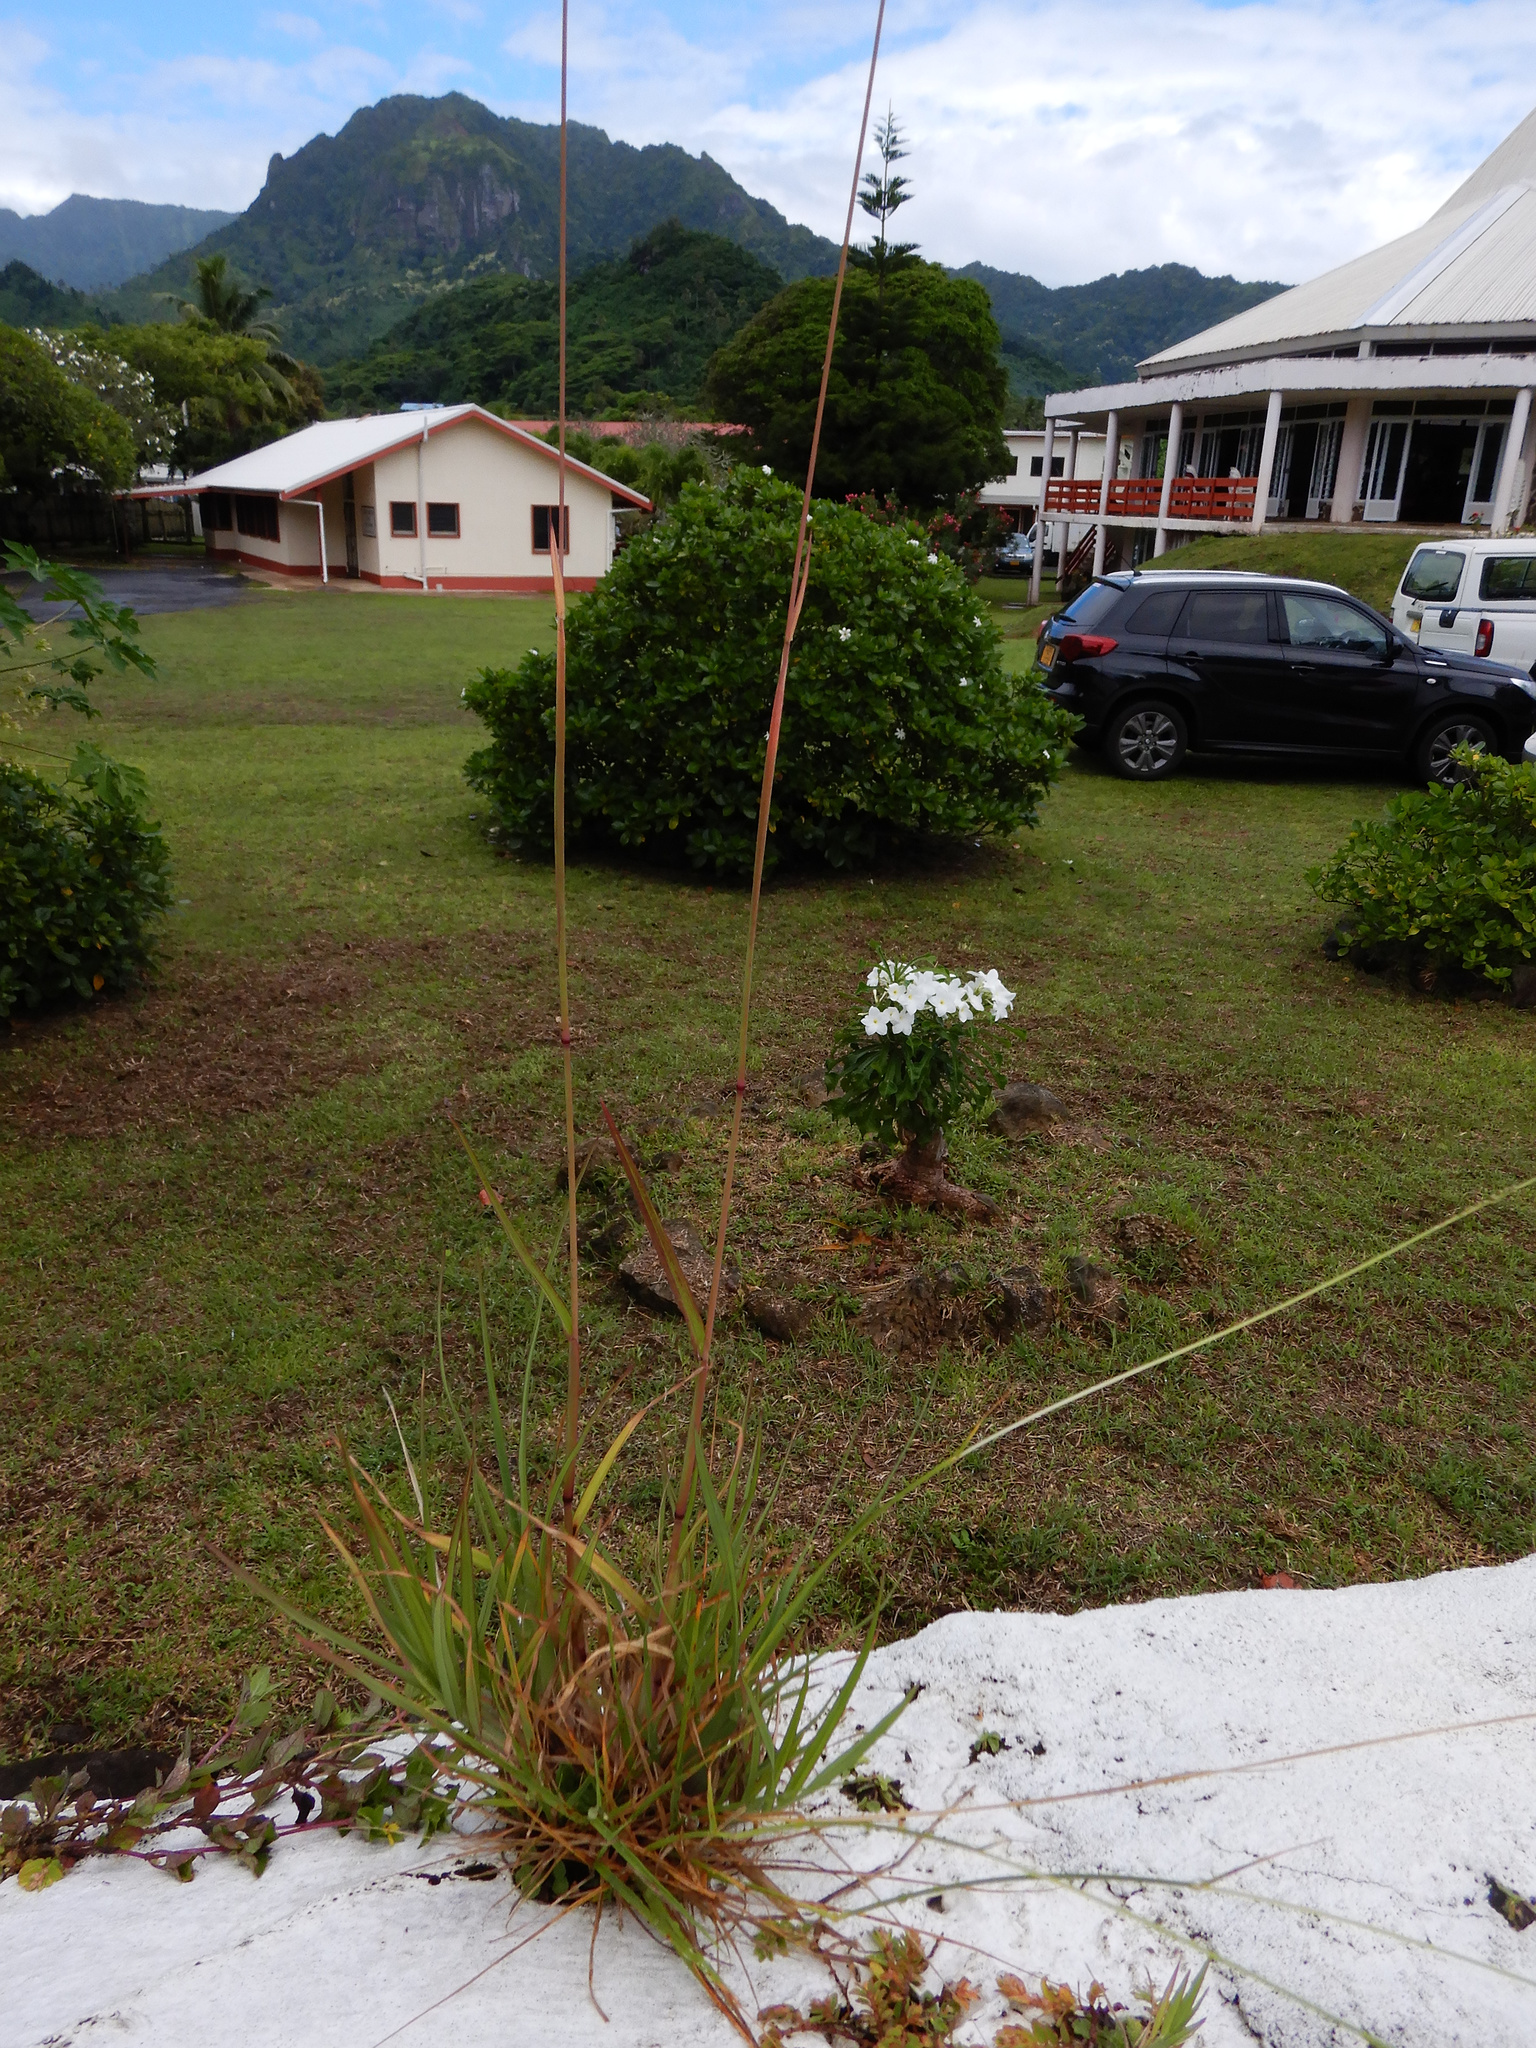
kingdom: Plantae
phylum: Tracheophyta
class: Liliopsida
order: Poales
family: Poaceae
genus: Chloris
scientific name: Chloris barbata
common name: Swollen fingergrass
